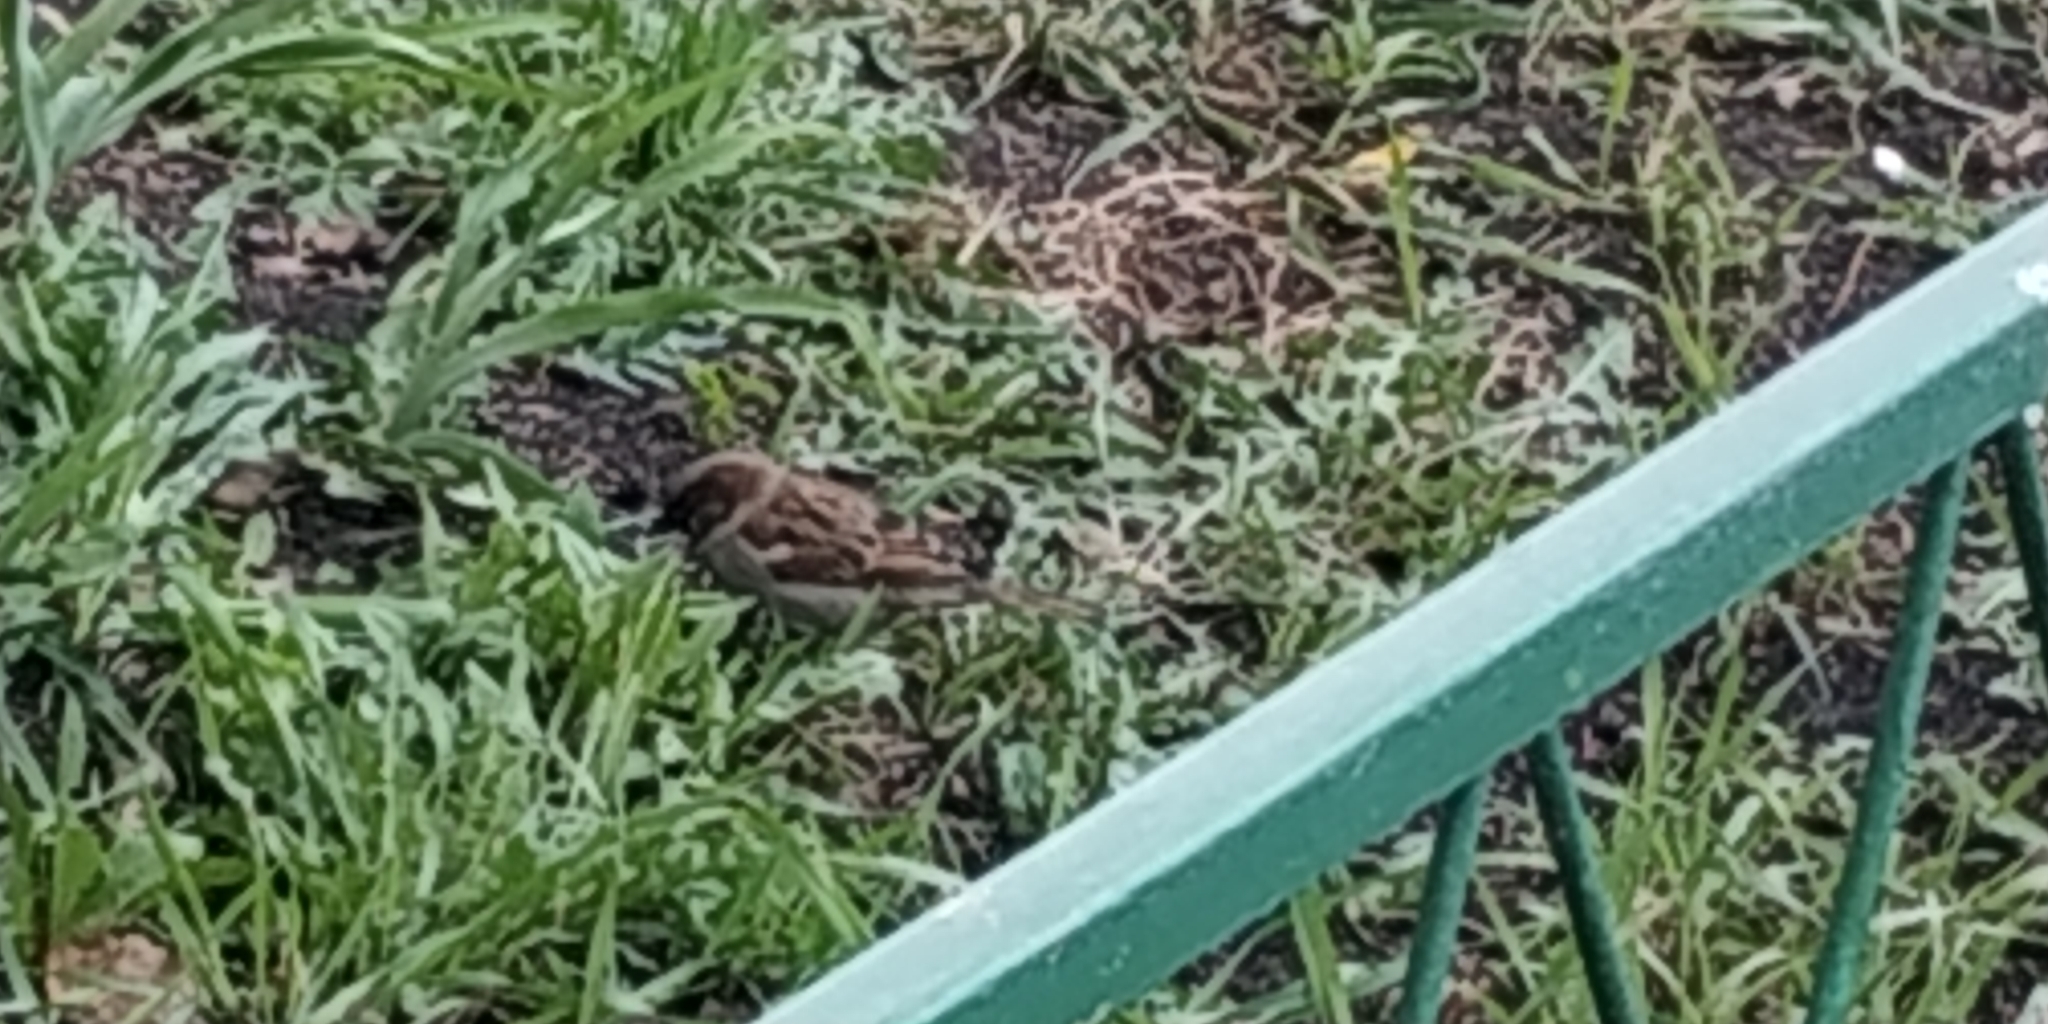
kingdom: Animalia
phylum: Chordata
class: Aves
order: Passeriformes
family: Passeridae
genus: Passer
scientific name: Passer domesticus
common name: House sparrow
